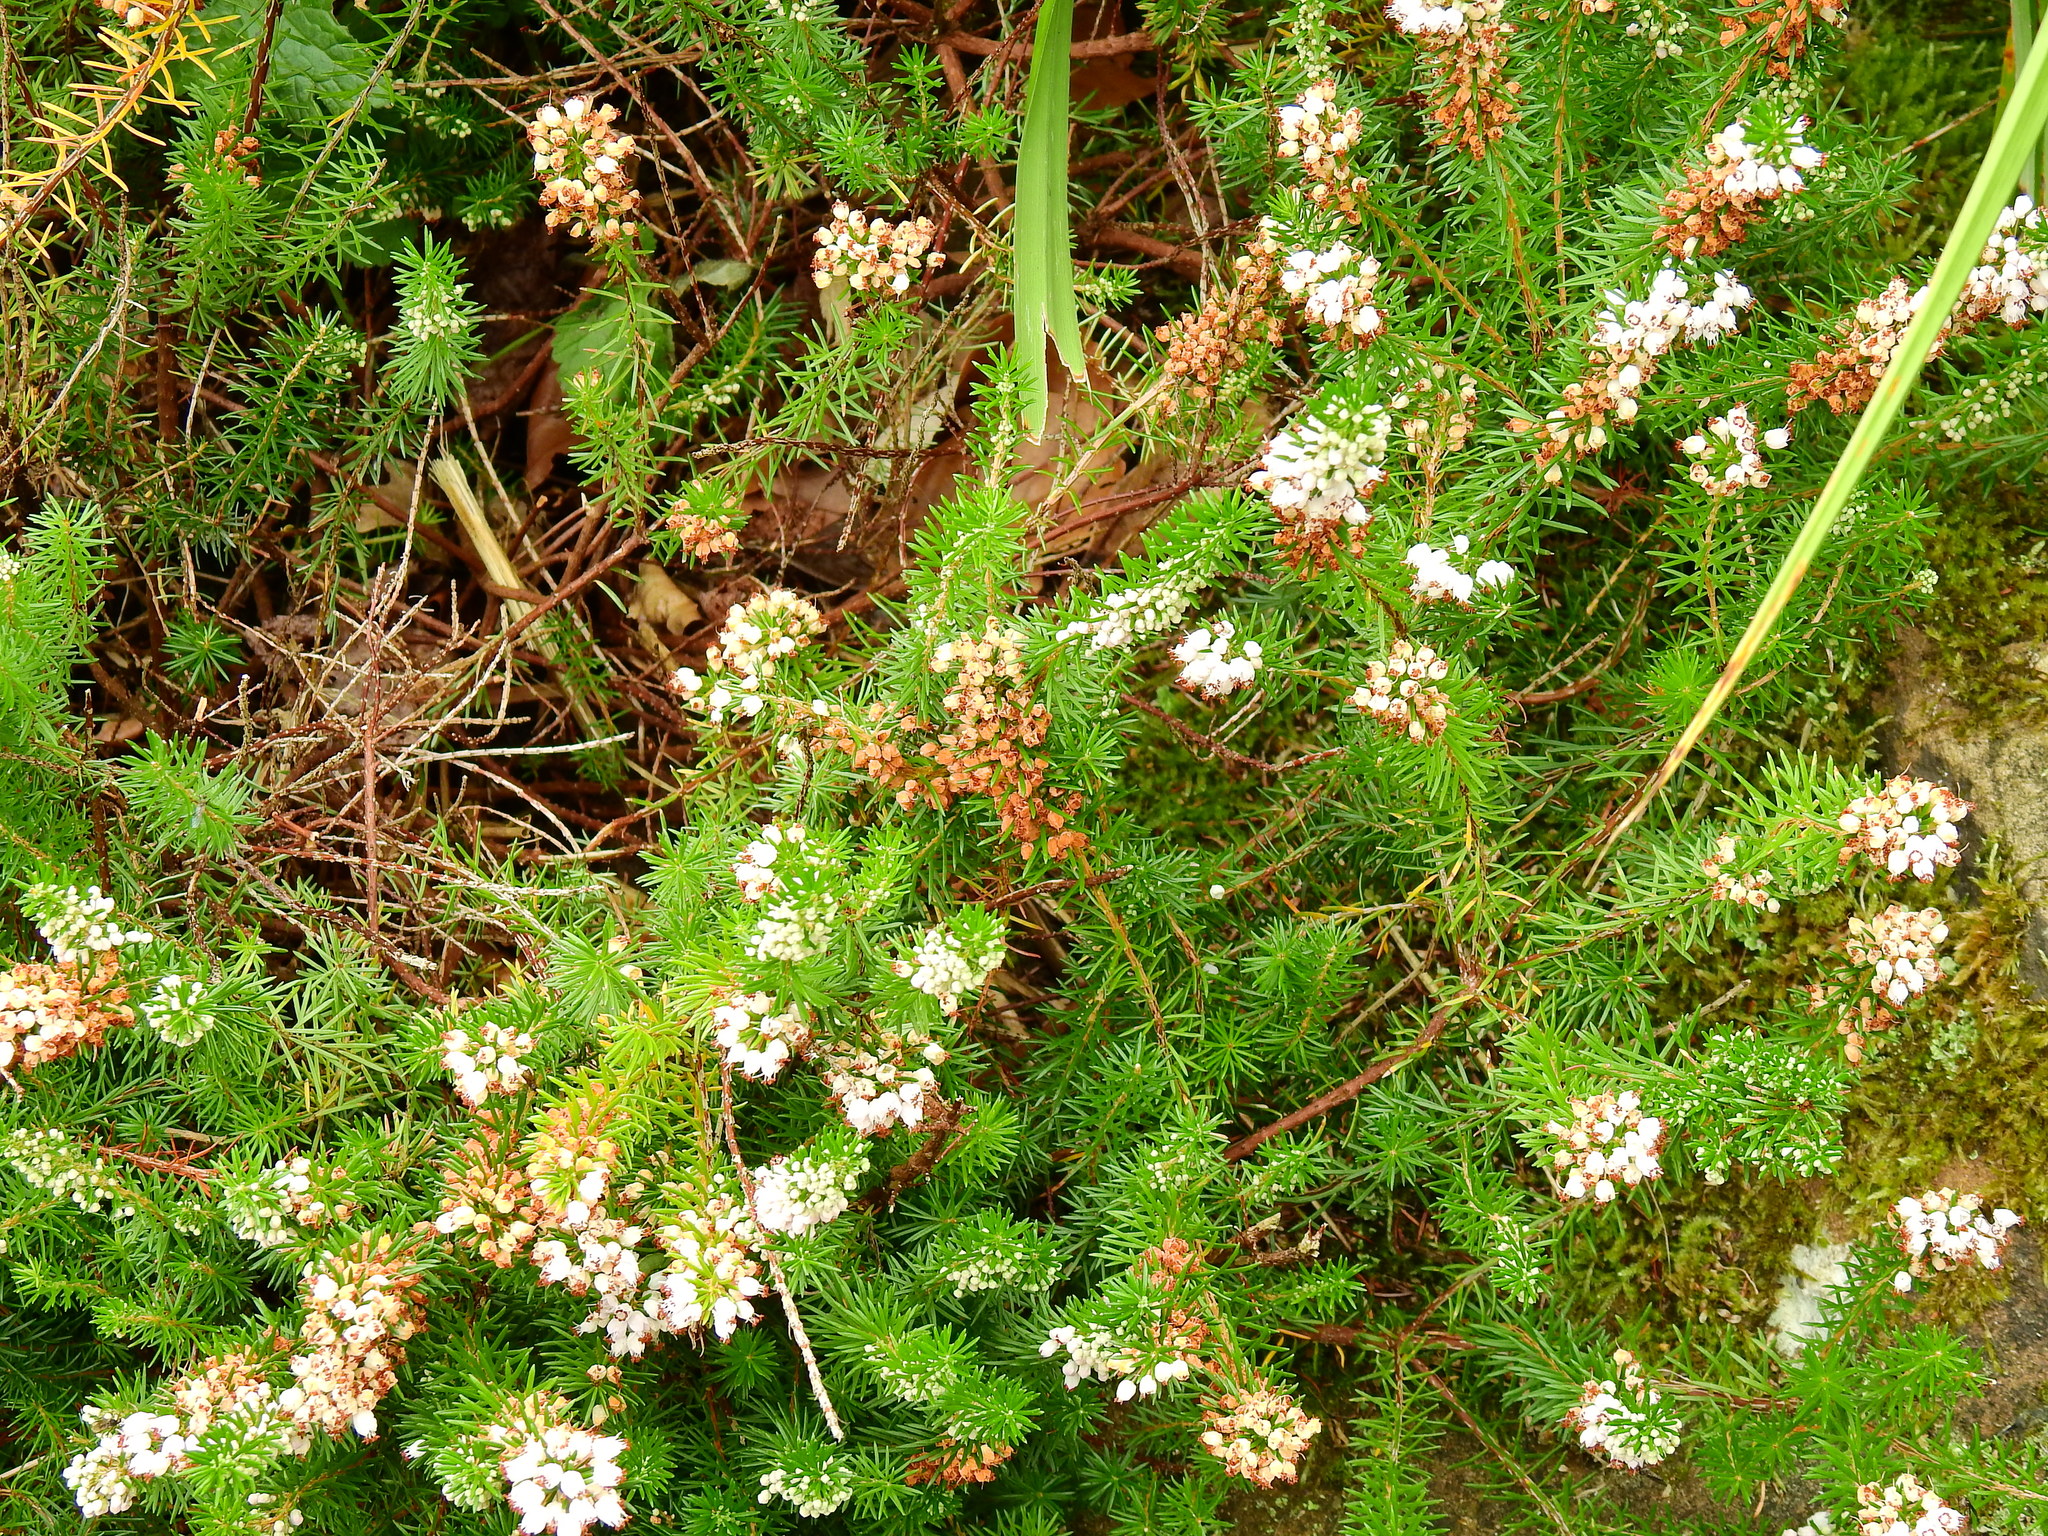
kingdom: Plantae
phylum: Tracheophyta
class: Magnoliopsida
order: Ericales
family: Ericaceae
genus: Erica
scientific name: Erica vagans
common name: Cornish heath
